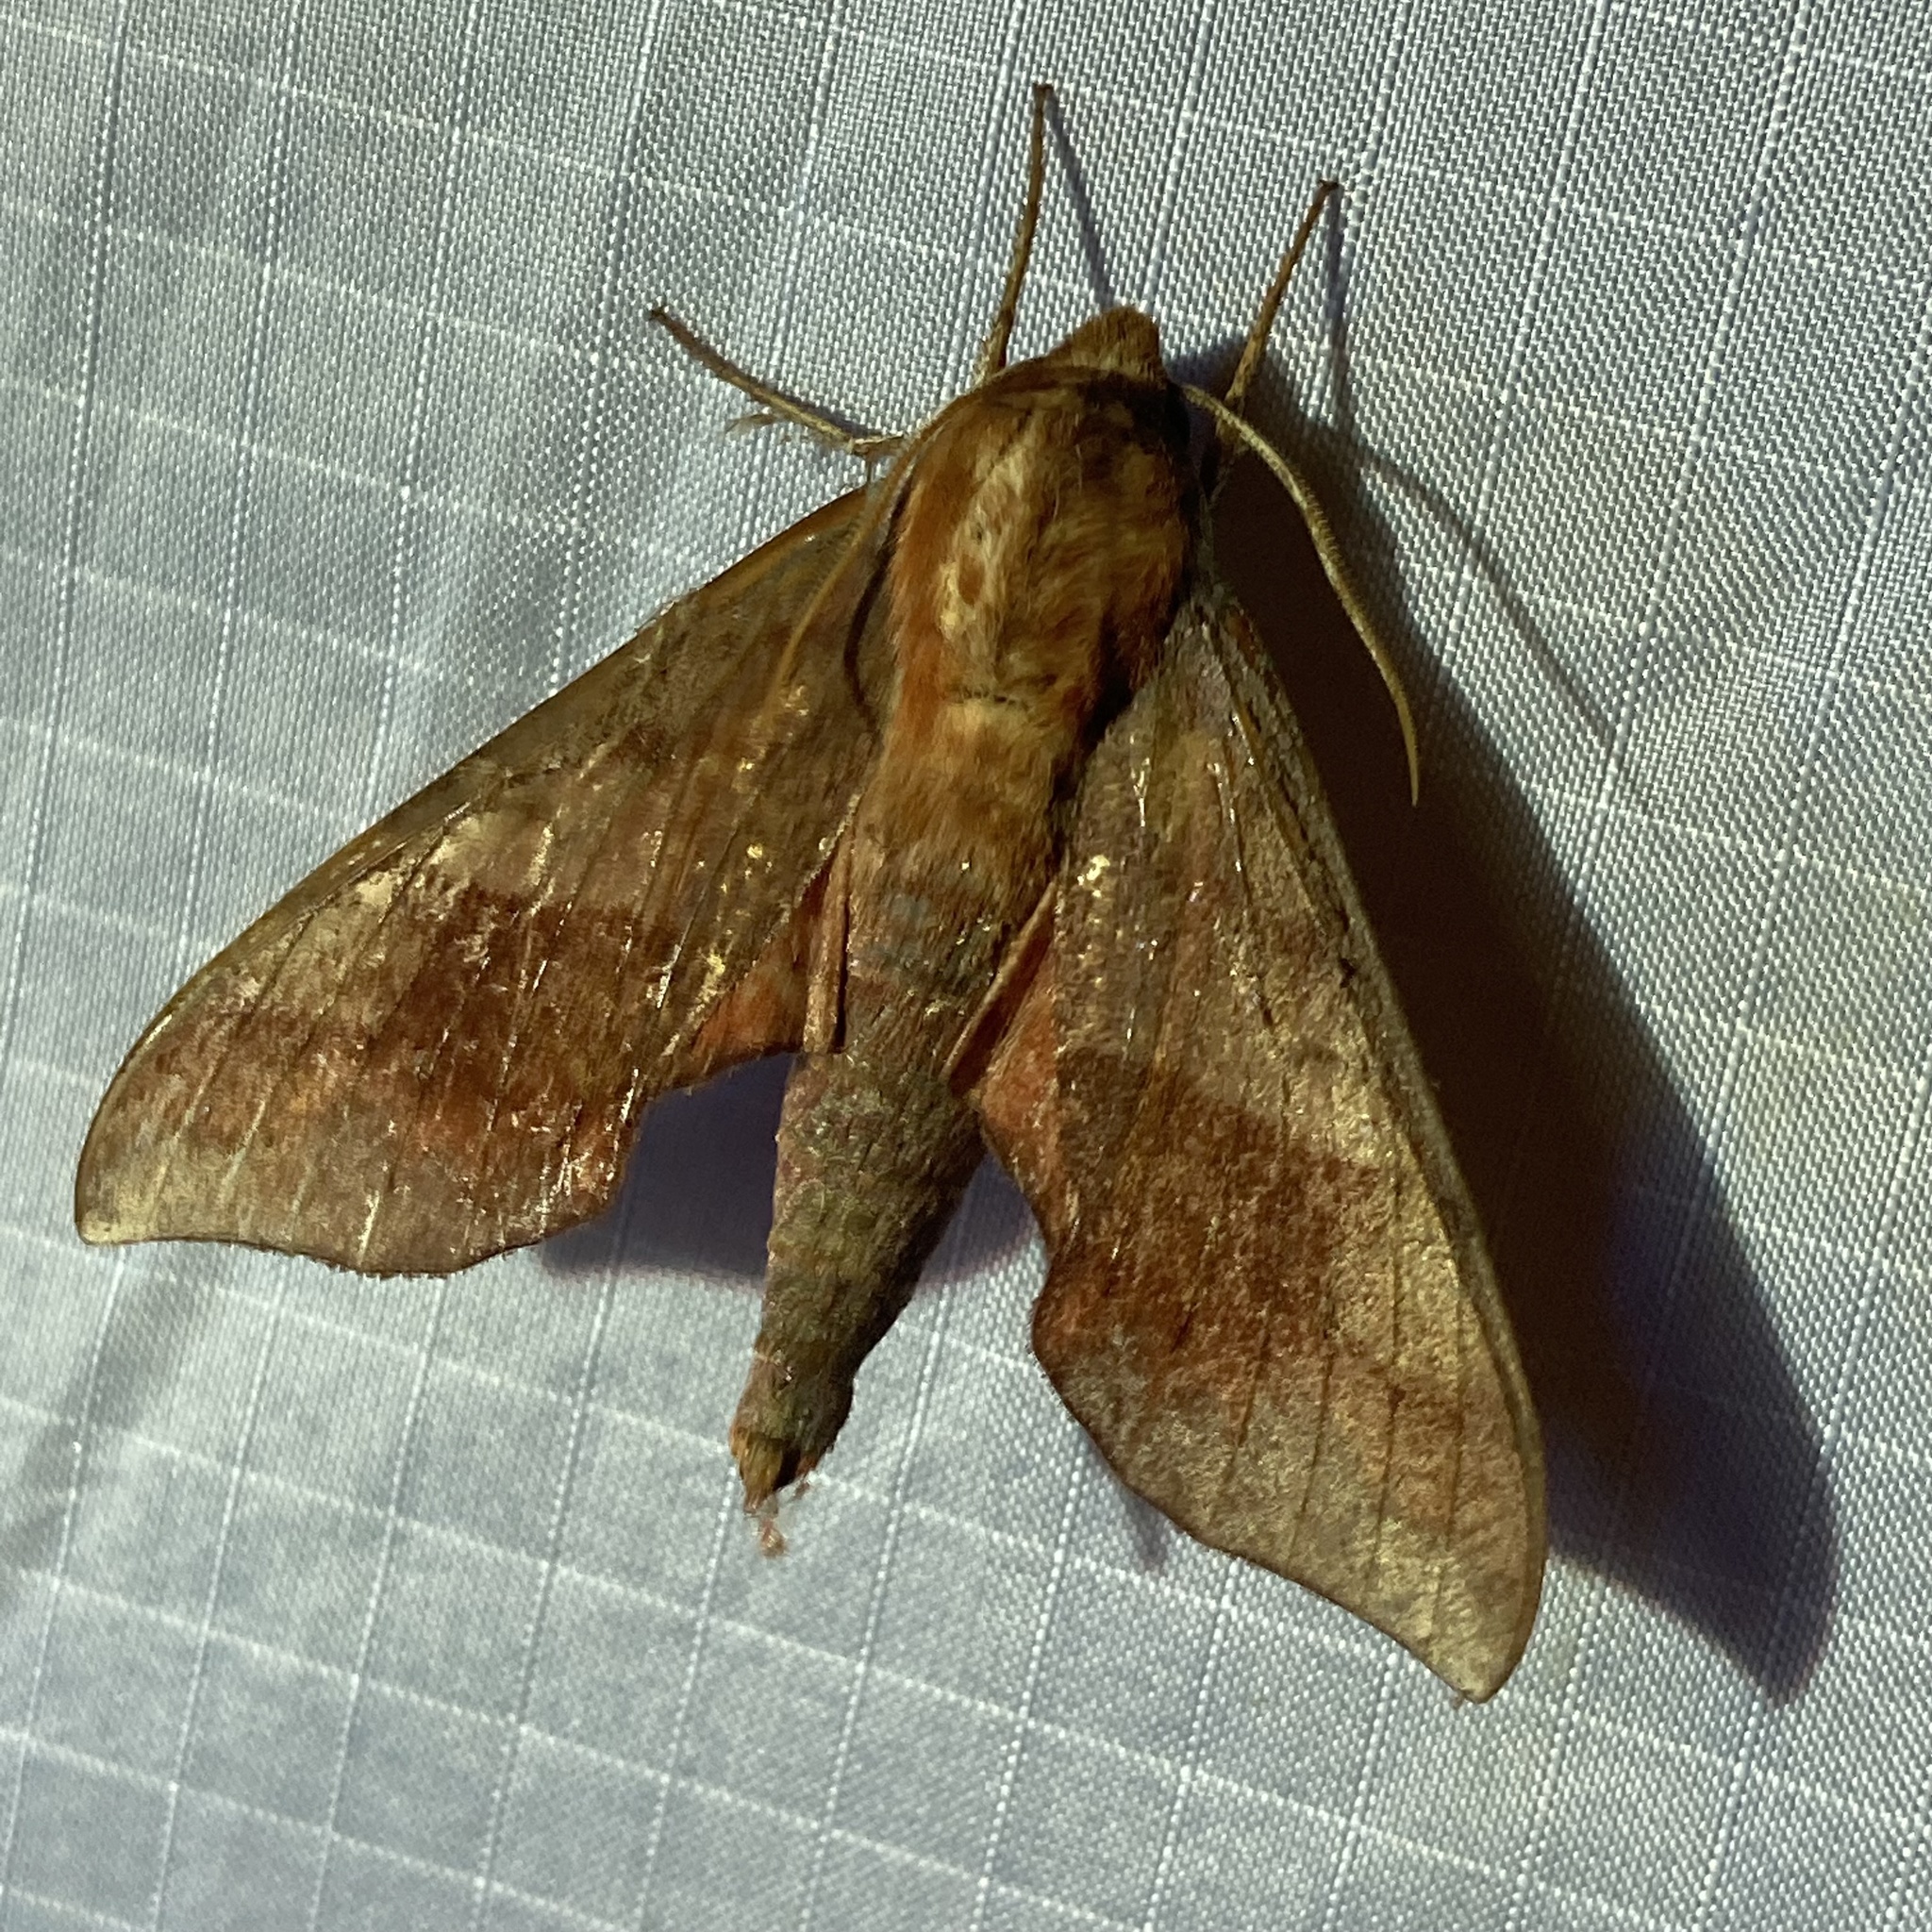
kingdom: Animalia
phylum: Arthropoda
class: Insecta
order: Lepidoptera
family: Sphingidae
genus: Darapsa
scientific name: Darapsa choerilus
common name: Azalea sphinx
